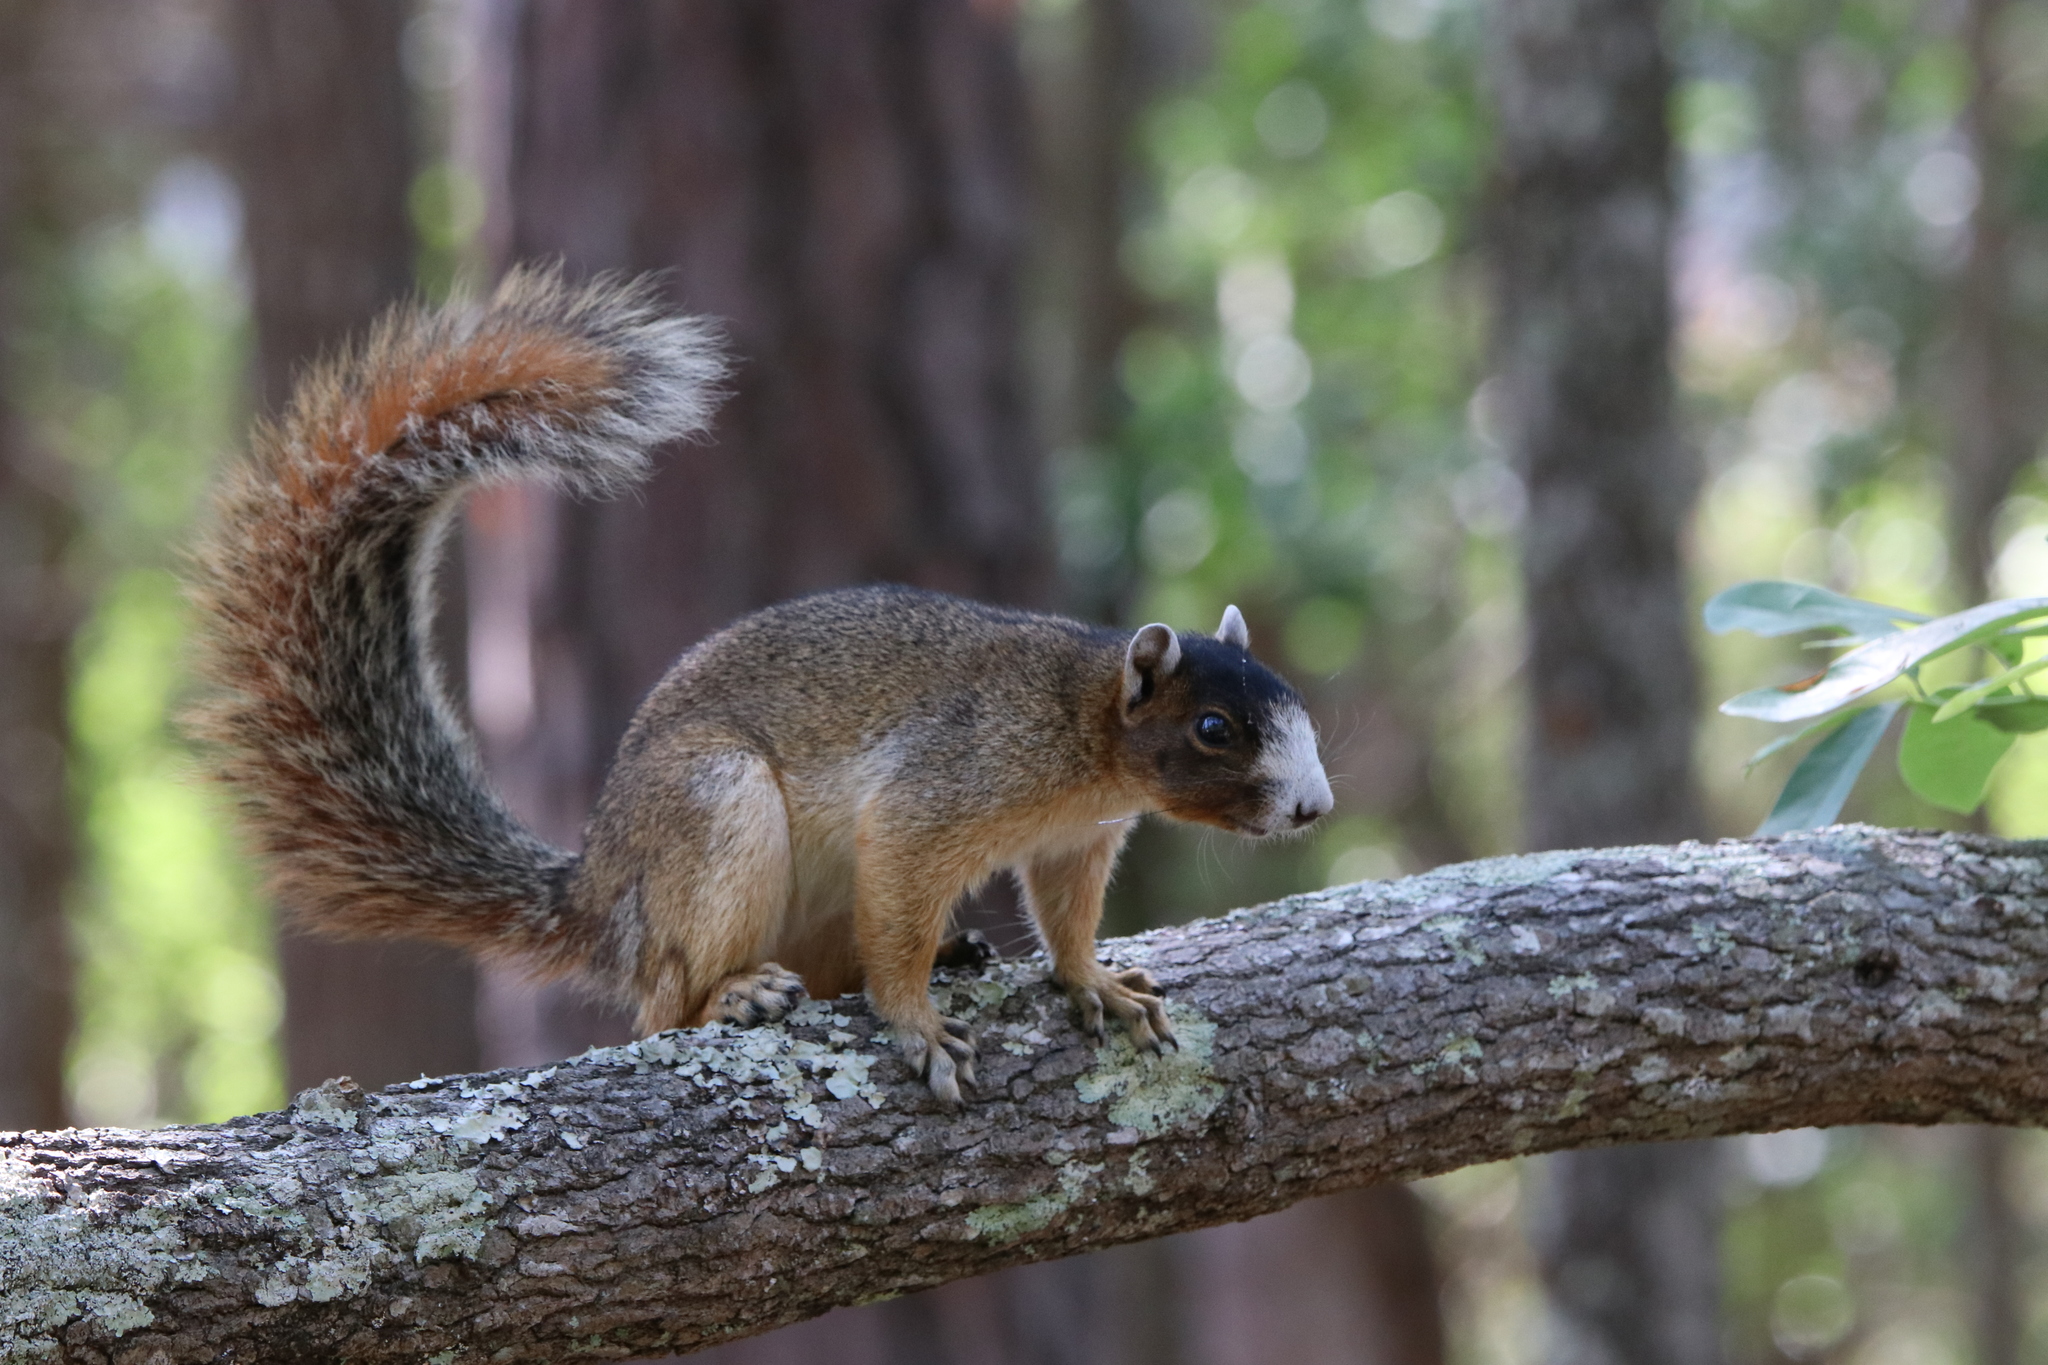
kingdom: Animalia
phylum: Chordata
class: Mammalia
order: Rodentia
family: Sciuridae
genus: Sciurus
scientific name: Sciurus niger
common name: Fox squirrel
